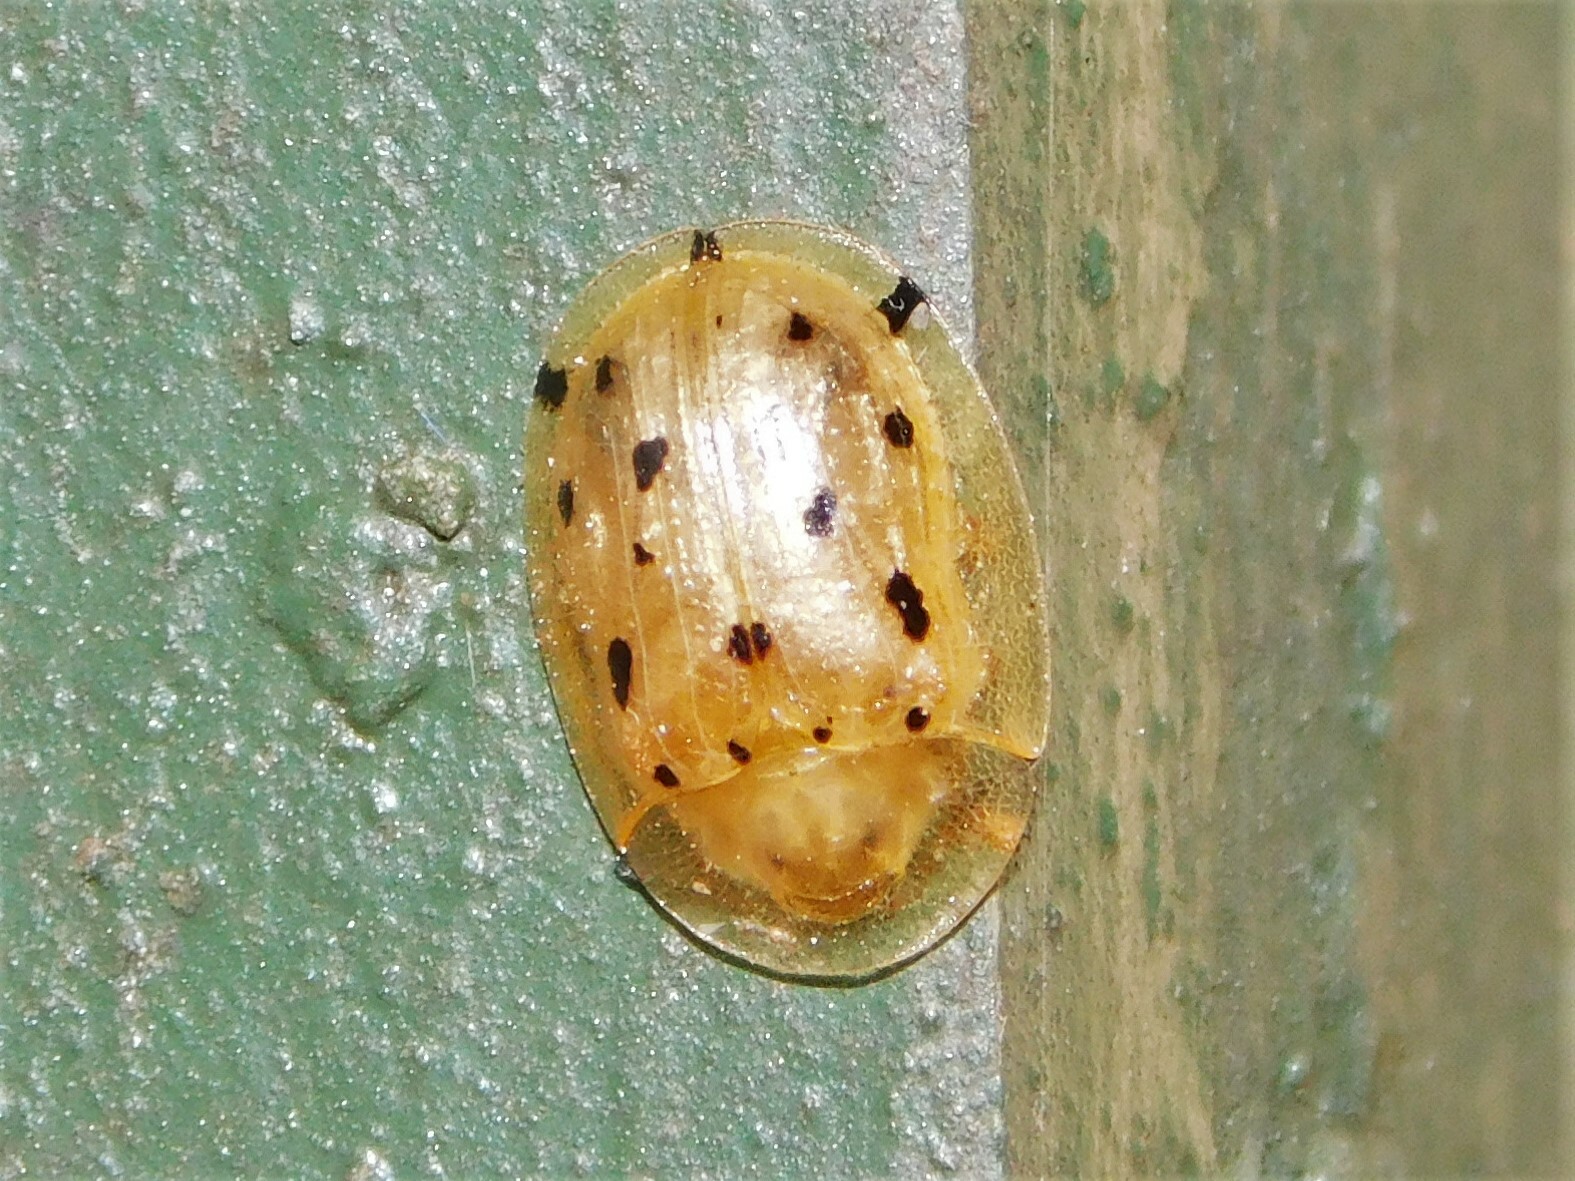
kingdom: Animalia
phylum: Arthropoda
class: Insecta
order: Coleoptera
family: Chrysomelidae
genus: Aspidimorpha
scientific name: Aspidimorpha nigromaculata
